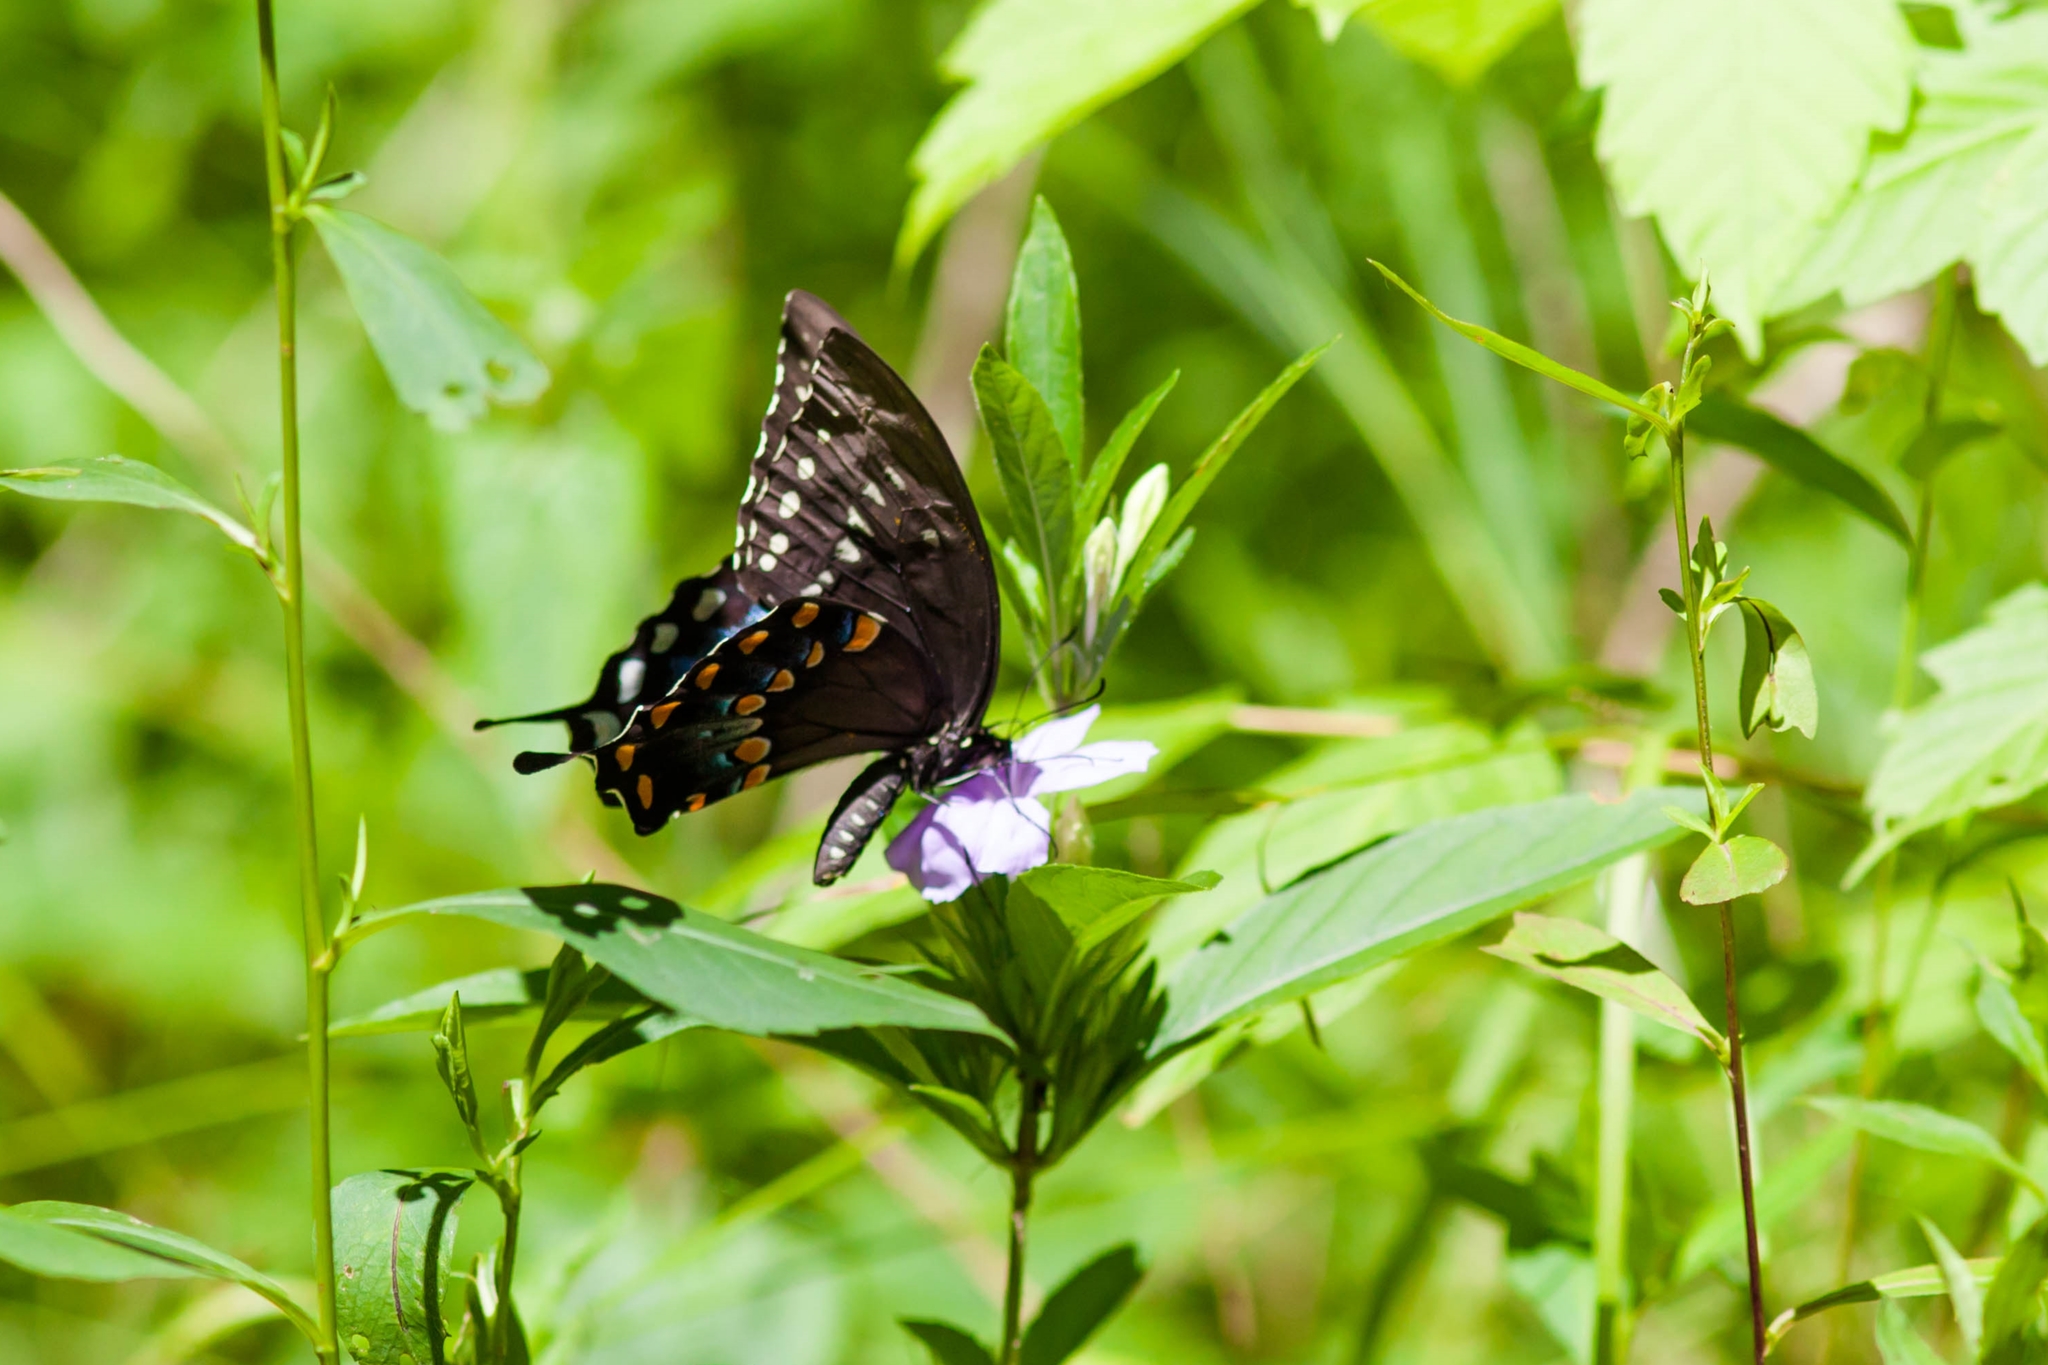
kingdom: Animalia
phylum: Arthropoda
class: Insecta
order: Lepidoptera
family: Papilionidae
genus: Papilio
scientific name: Papilio troilus
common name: Spicebush swallowtail
